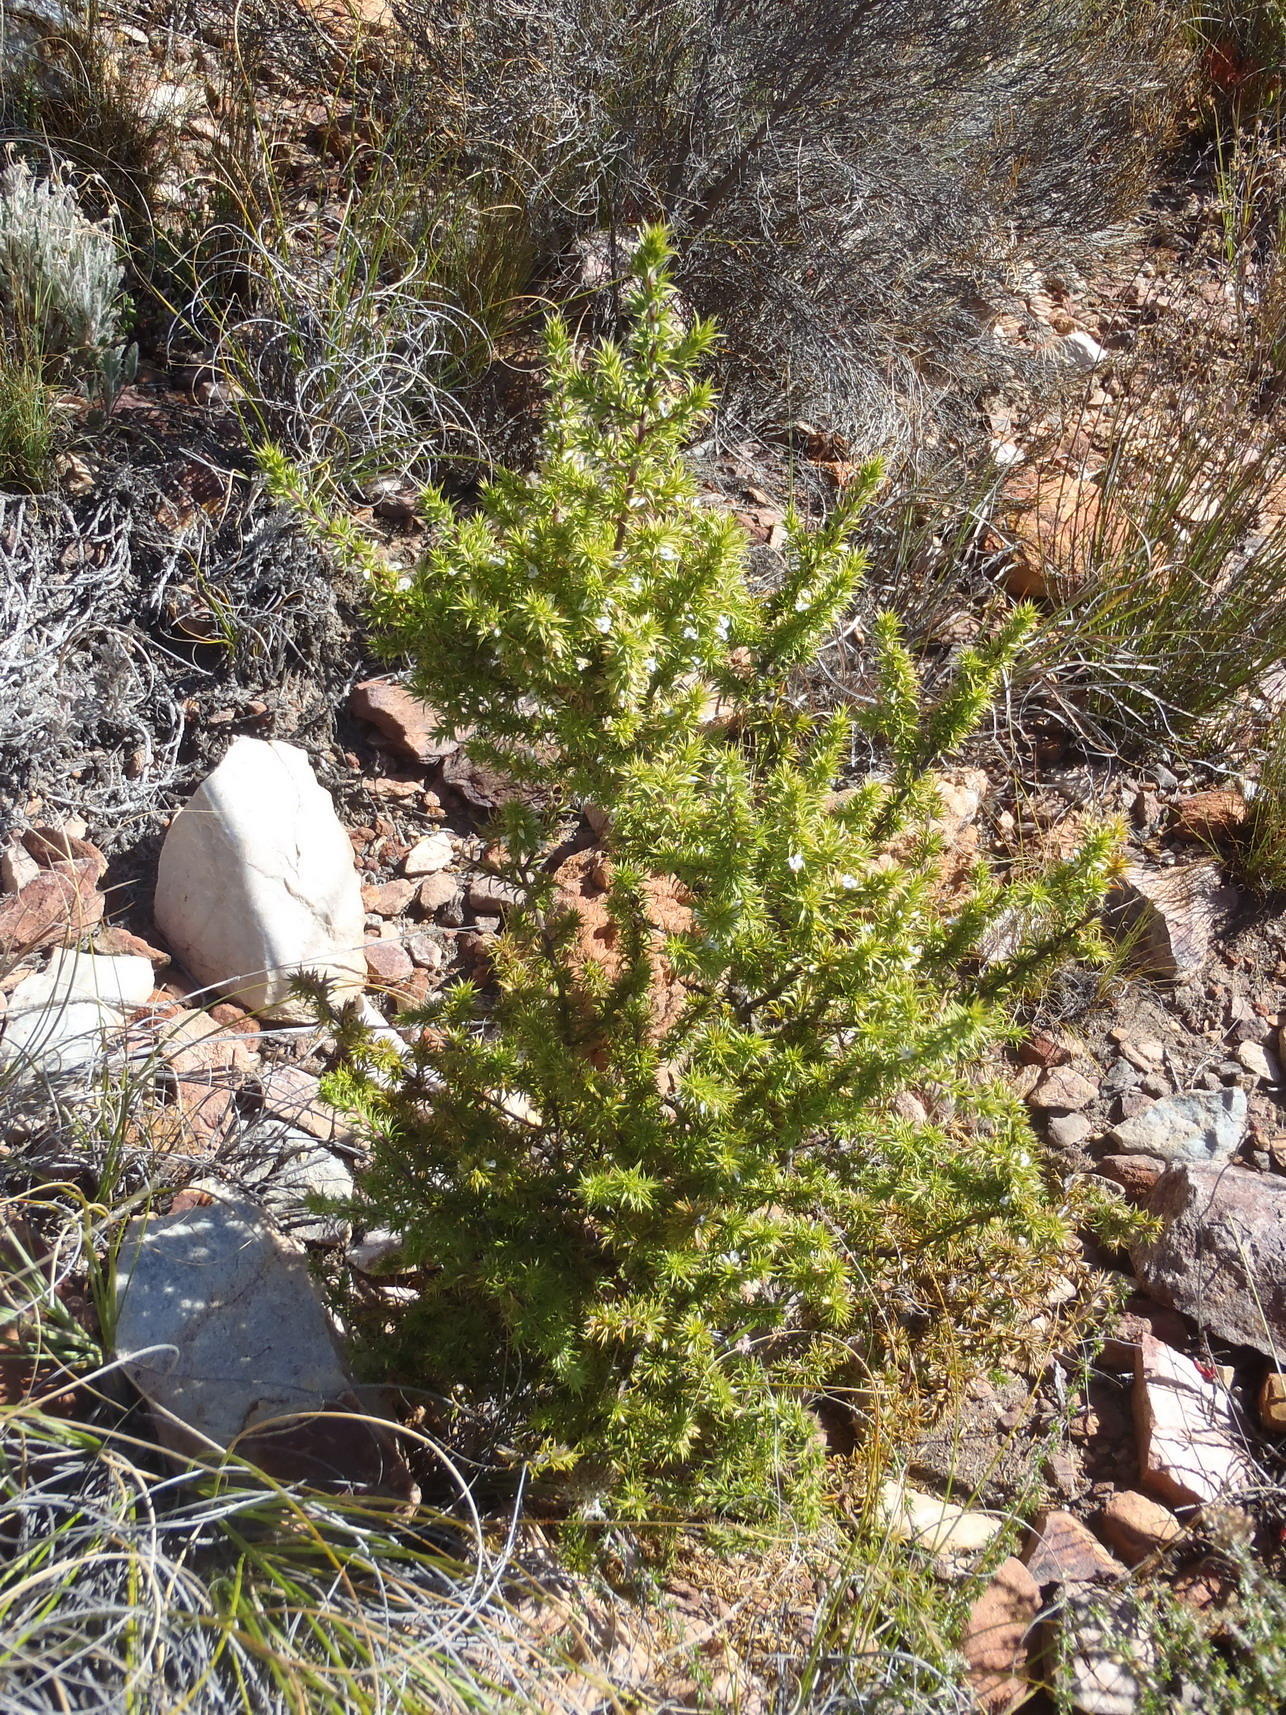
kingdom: Plantae
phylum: Tracheophyta
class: Magnoliopsida
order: Fabales
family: Polygalaceae
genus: Muraltia
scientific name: Muraltia ericifolia
